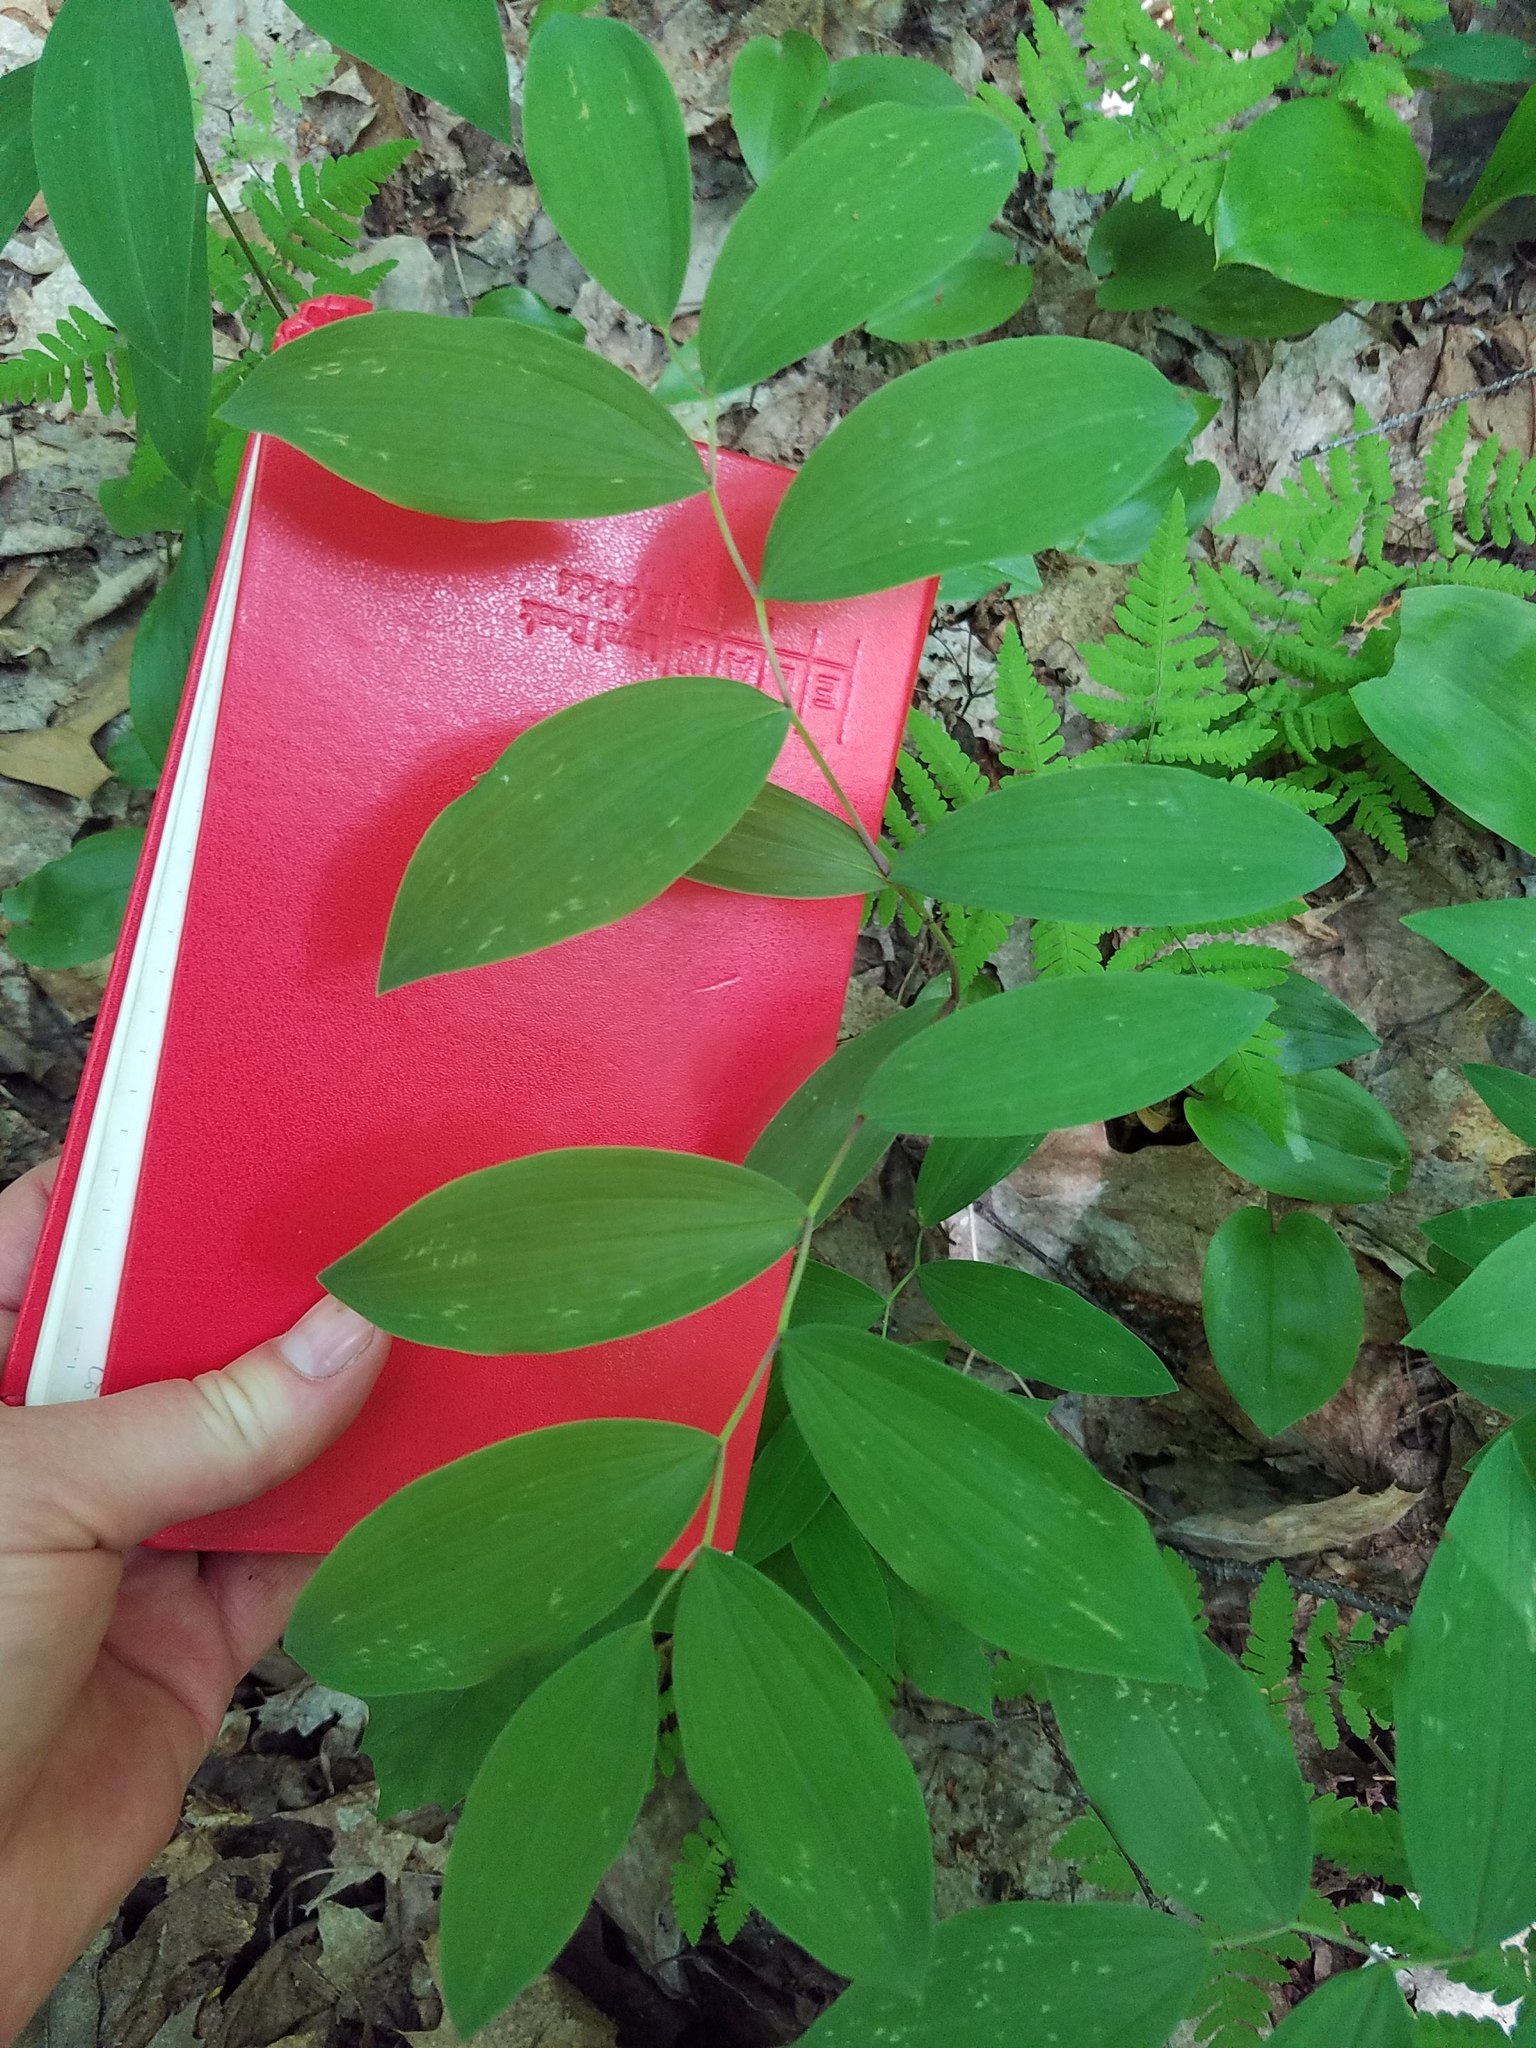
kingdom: Plantae
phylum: Tracheophyta
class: Liliopsida
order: Liliales
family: Colchicaceae
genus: Uvularia
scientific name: Uvularia sessilifolia
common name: Straw-lily
